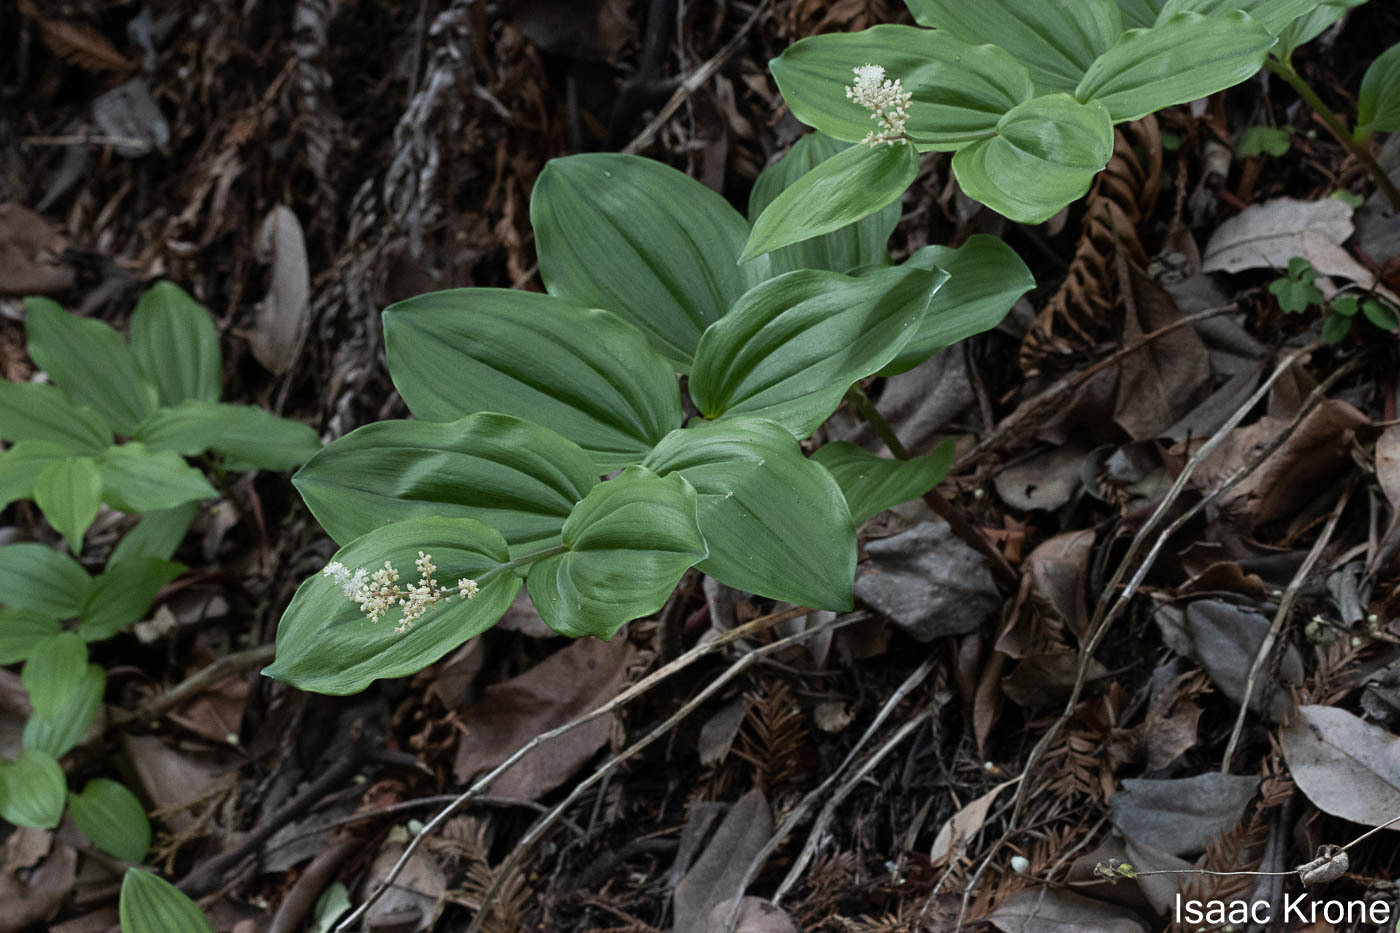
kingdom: Plantae
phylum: Tracheophyta
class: Liliopsida
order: Asparagales
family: Asparagaceae
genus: Maianthemum
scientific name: Maianthemum racemosum
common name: False spikenard
